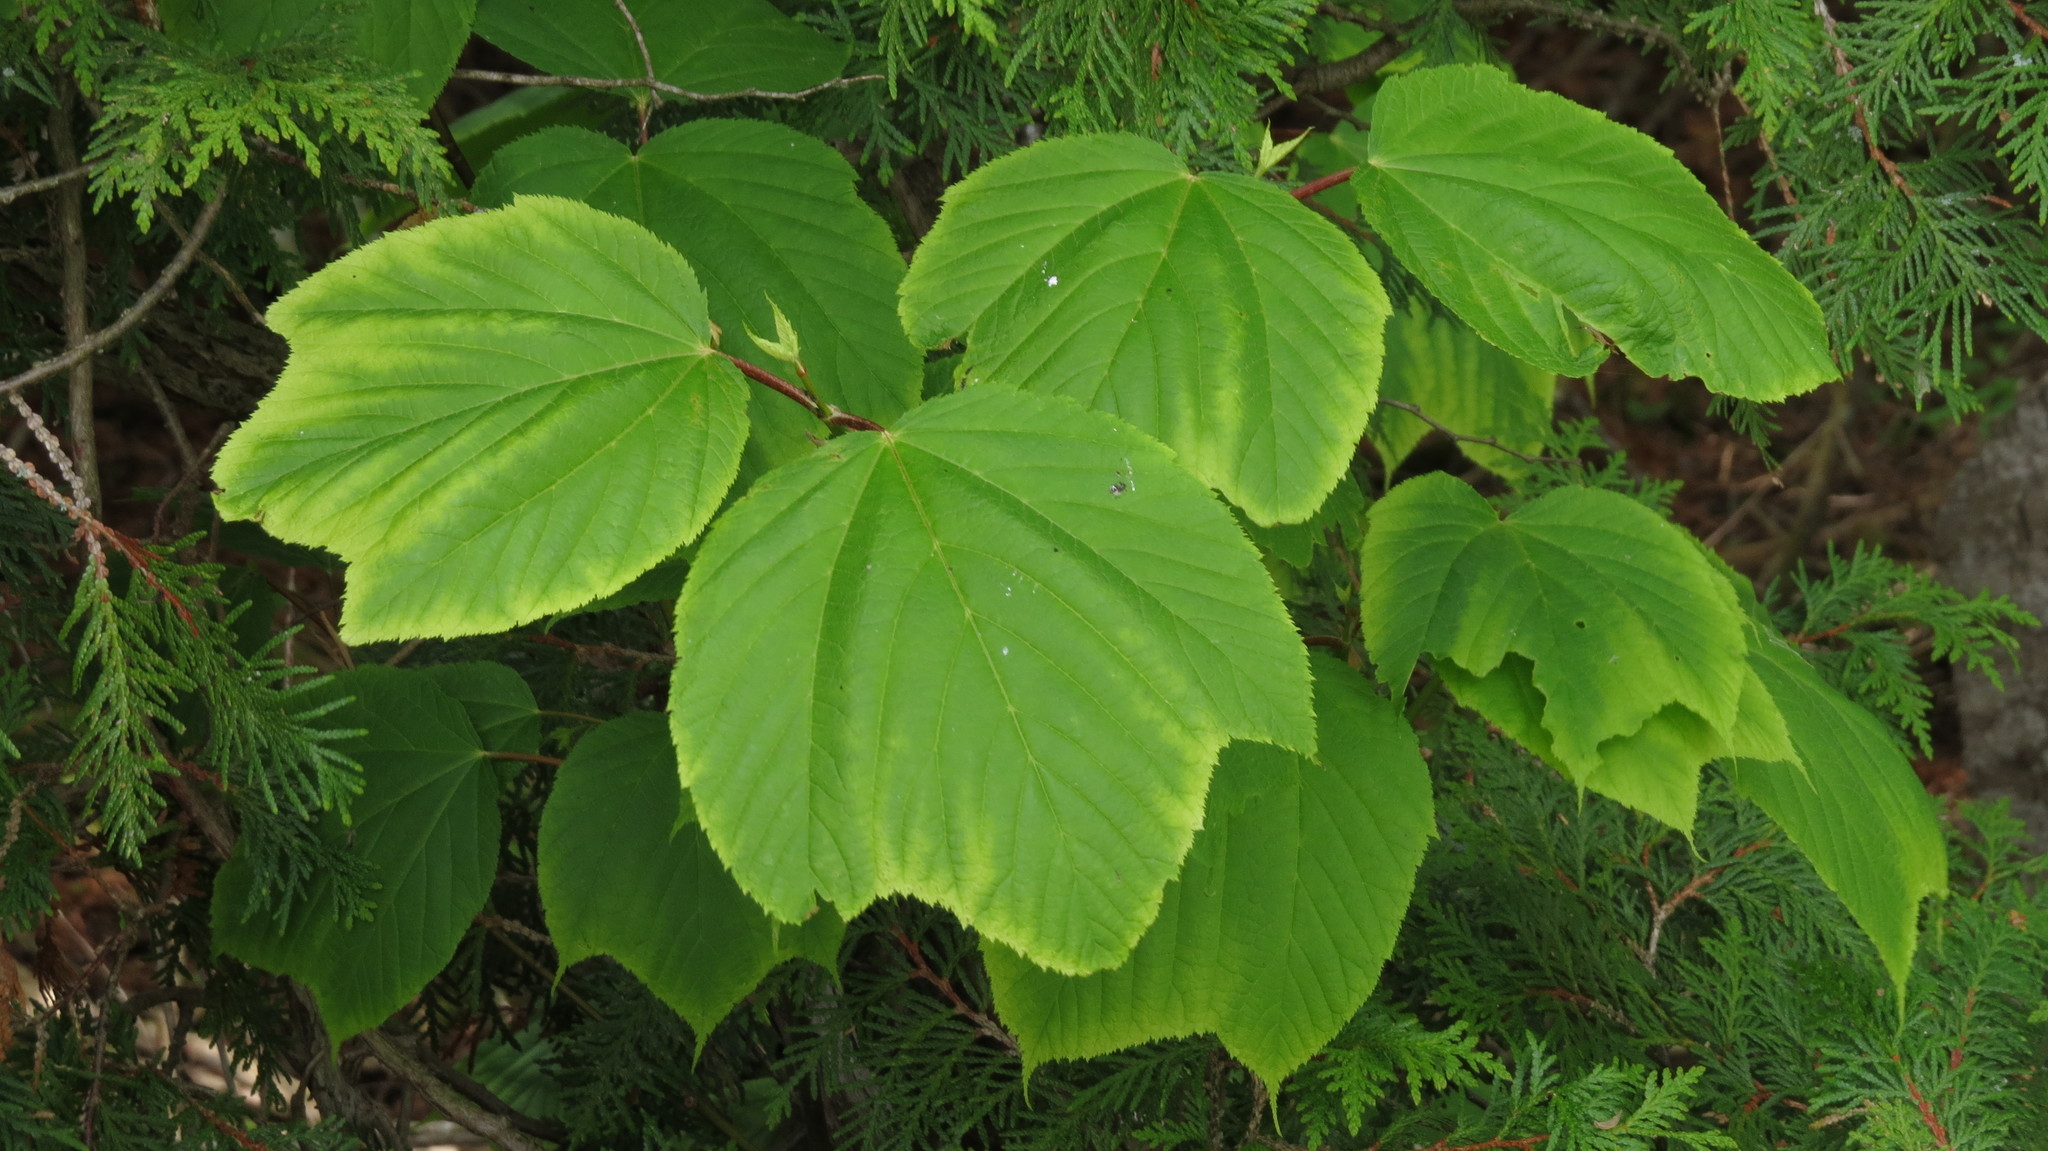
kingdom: Plantae
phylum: Tracheophyta
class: Magnoliopsida
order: Sapindales
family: Sapindaceae
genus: Acer
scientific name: Acer pensylvanicum
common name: Moosewood
